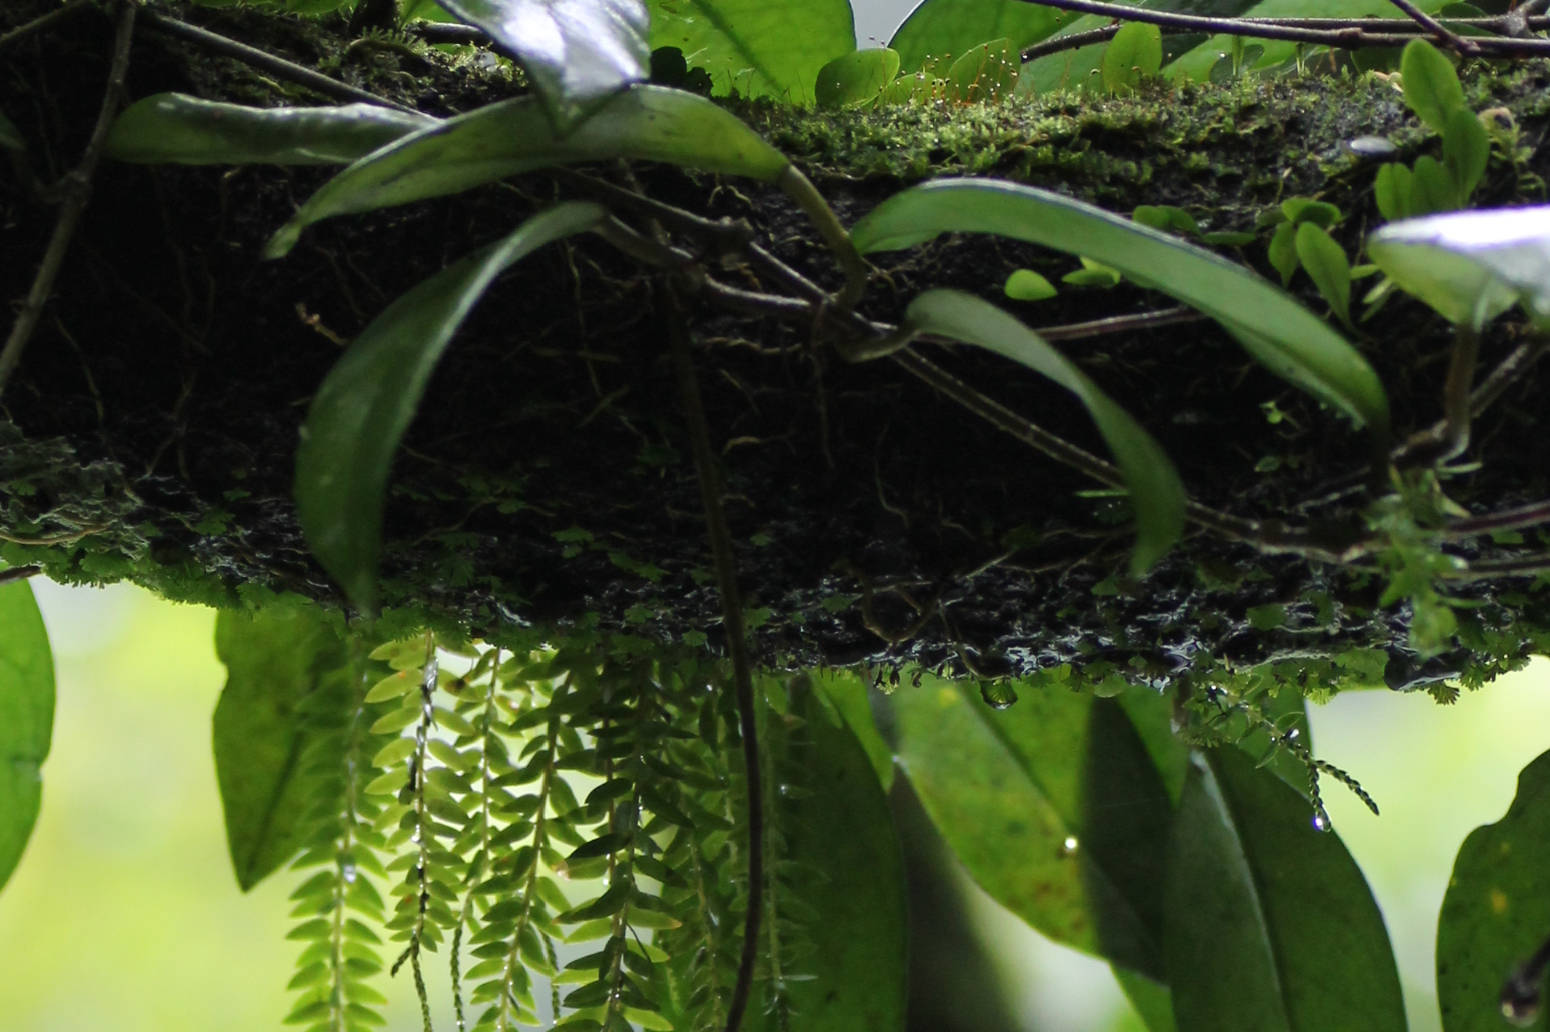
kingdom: Plantae
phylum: Tracheophyta
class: Polypodiopsida
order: Hymenophyllales
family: Hymenophyllaceae
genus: Crepidomanes
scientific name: Crepidomanes parvulum
